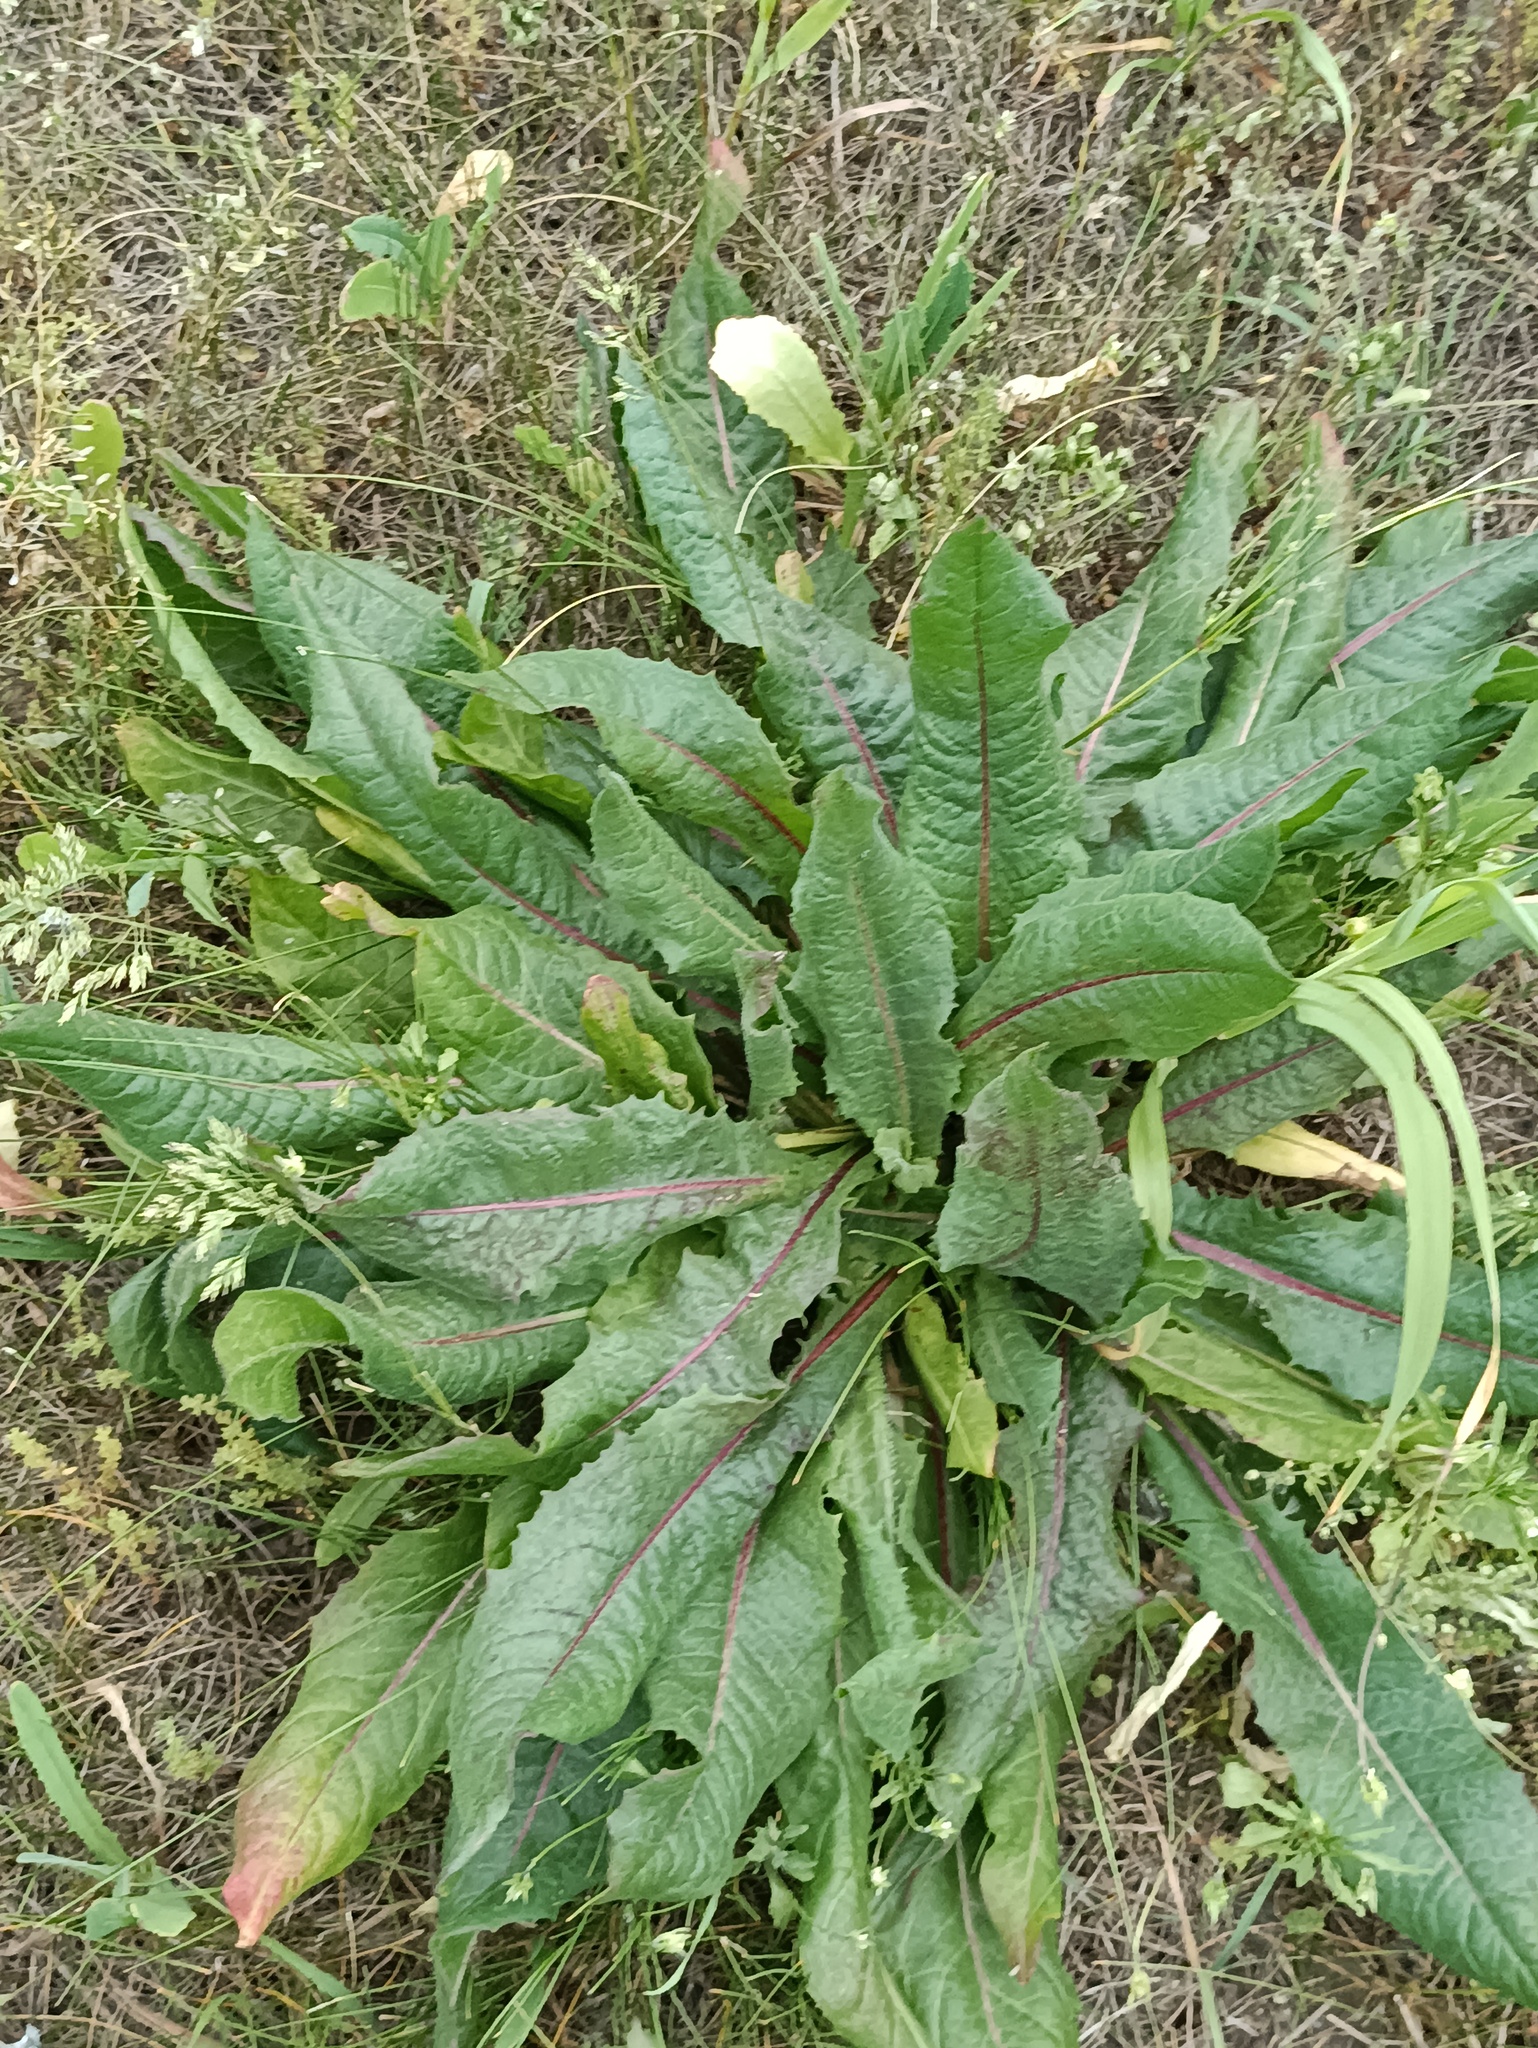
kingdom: Plantae
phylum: Tracheophyta
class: Magnoliopsida
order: Asterales
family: Asteraceae
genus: Cichorium
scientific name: Cichorium intybus
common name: Chicory
